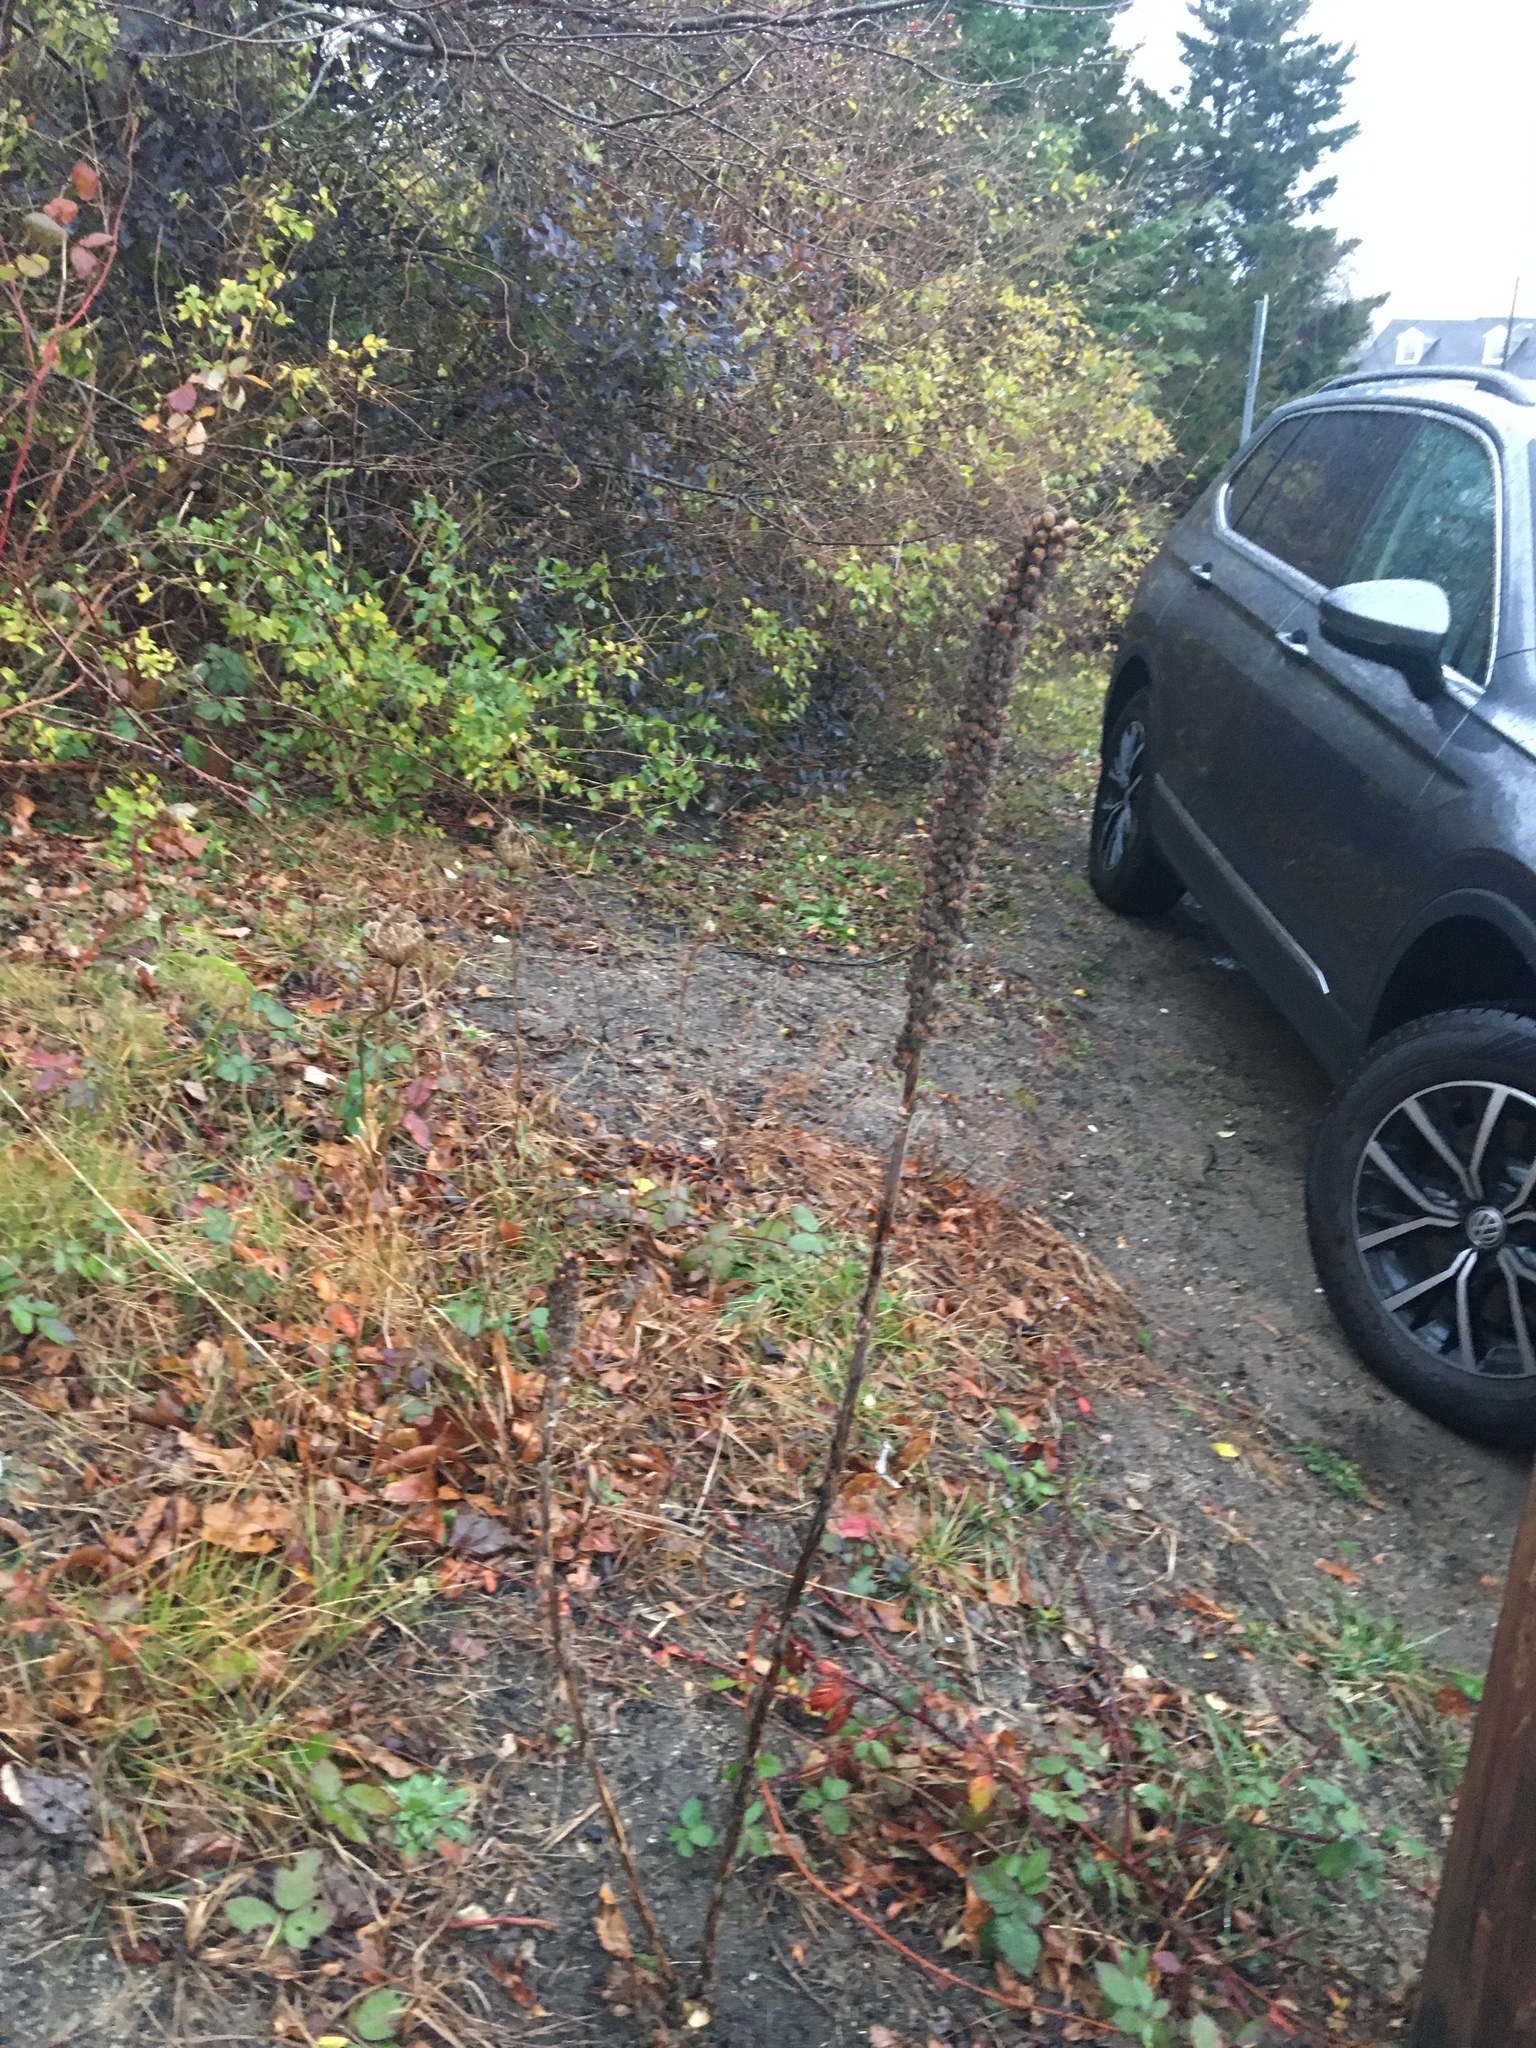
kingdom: Plantae
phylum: Tracheophyta
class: Magnoliopsida
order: Lamiales
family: Scrophulariaceae
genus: Verbascum
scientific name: Verbascum thapsus
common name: Common mullein
